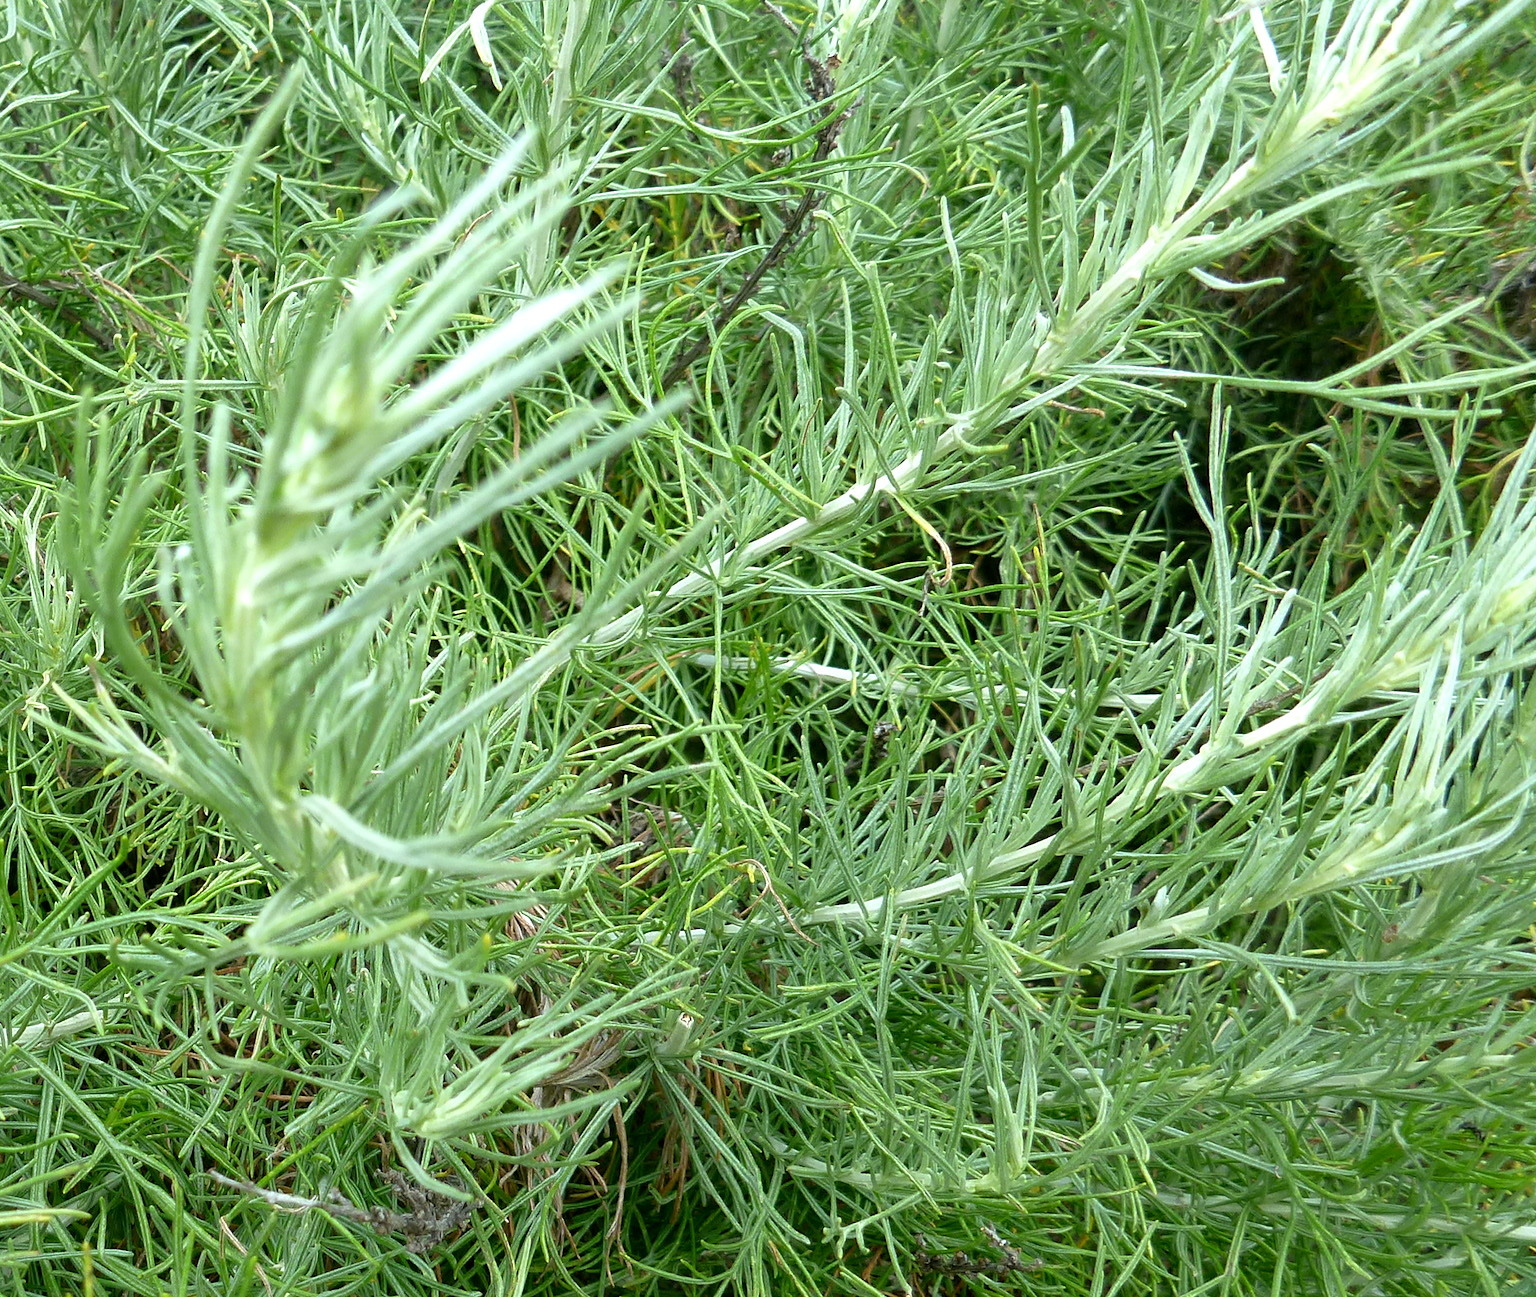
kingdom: Plantae
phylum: Tracheophyta
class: Magnoliopsida
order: Asterales
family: Asteraceae
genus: Artemisia
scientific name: Artemisia californica
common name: California sagebrush
